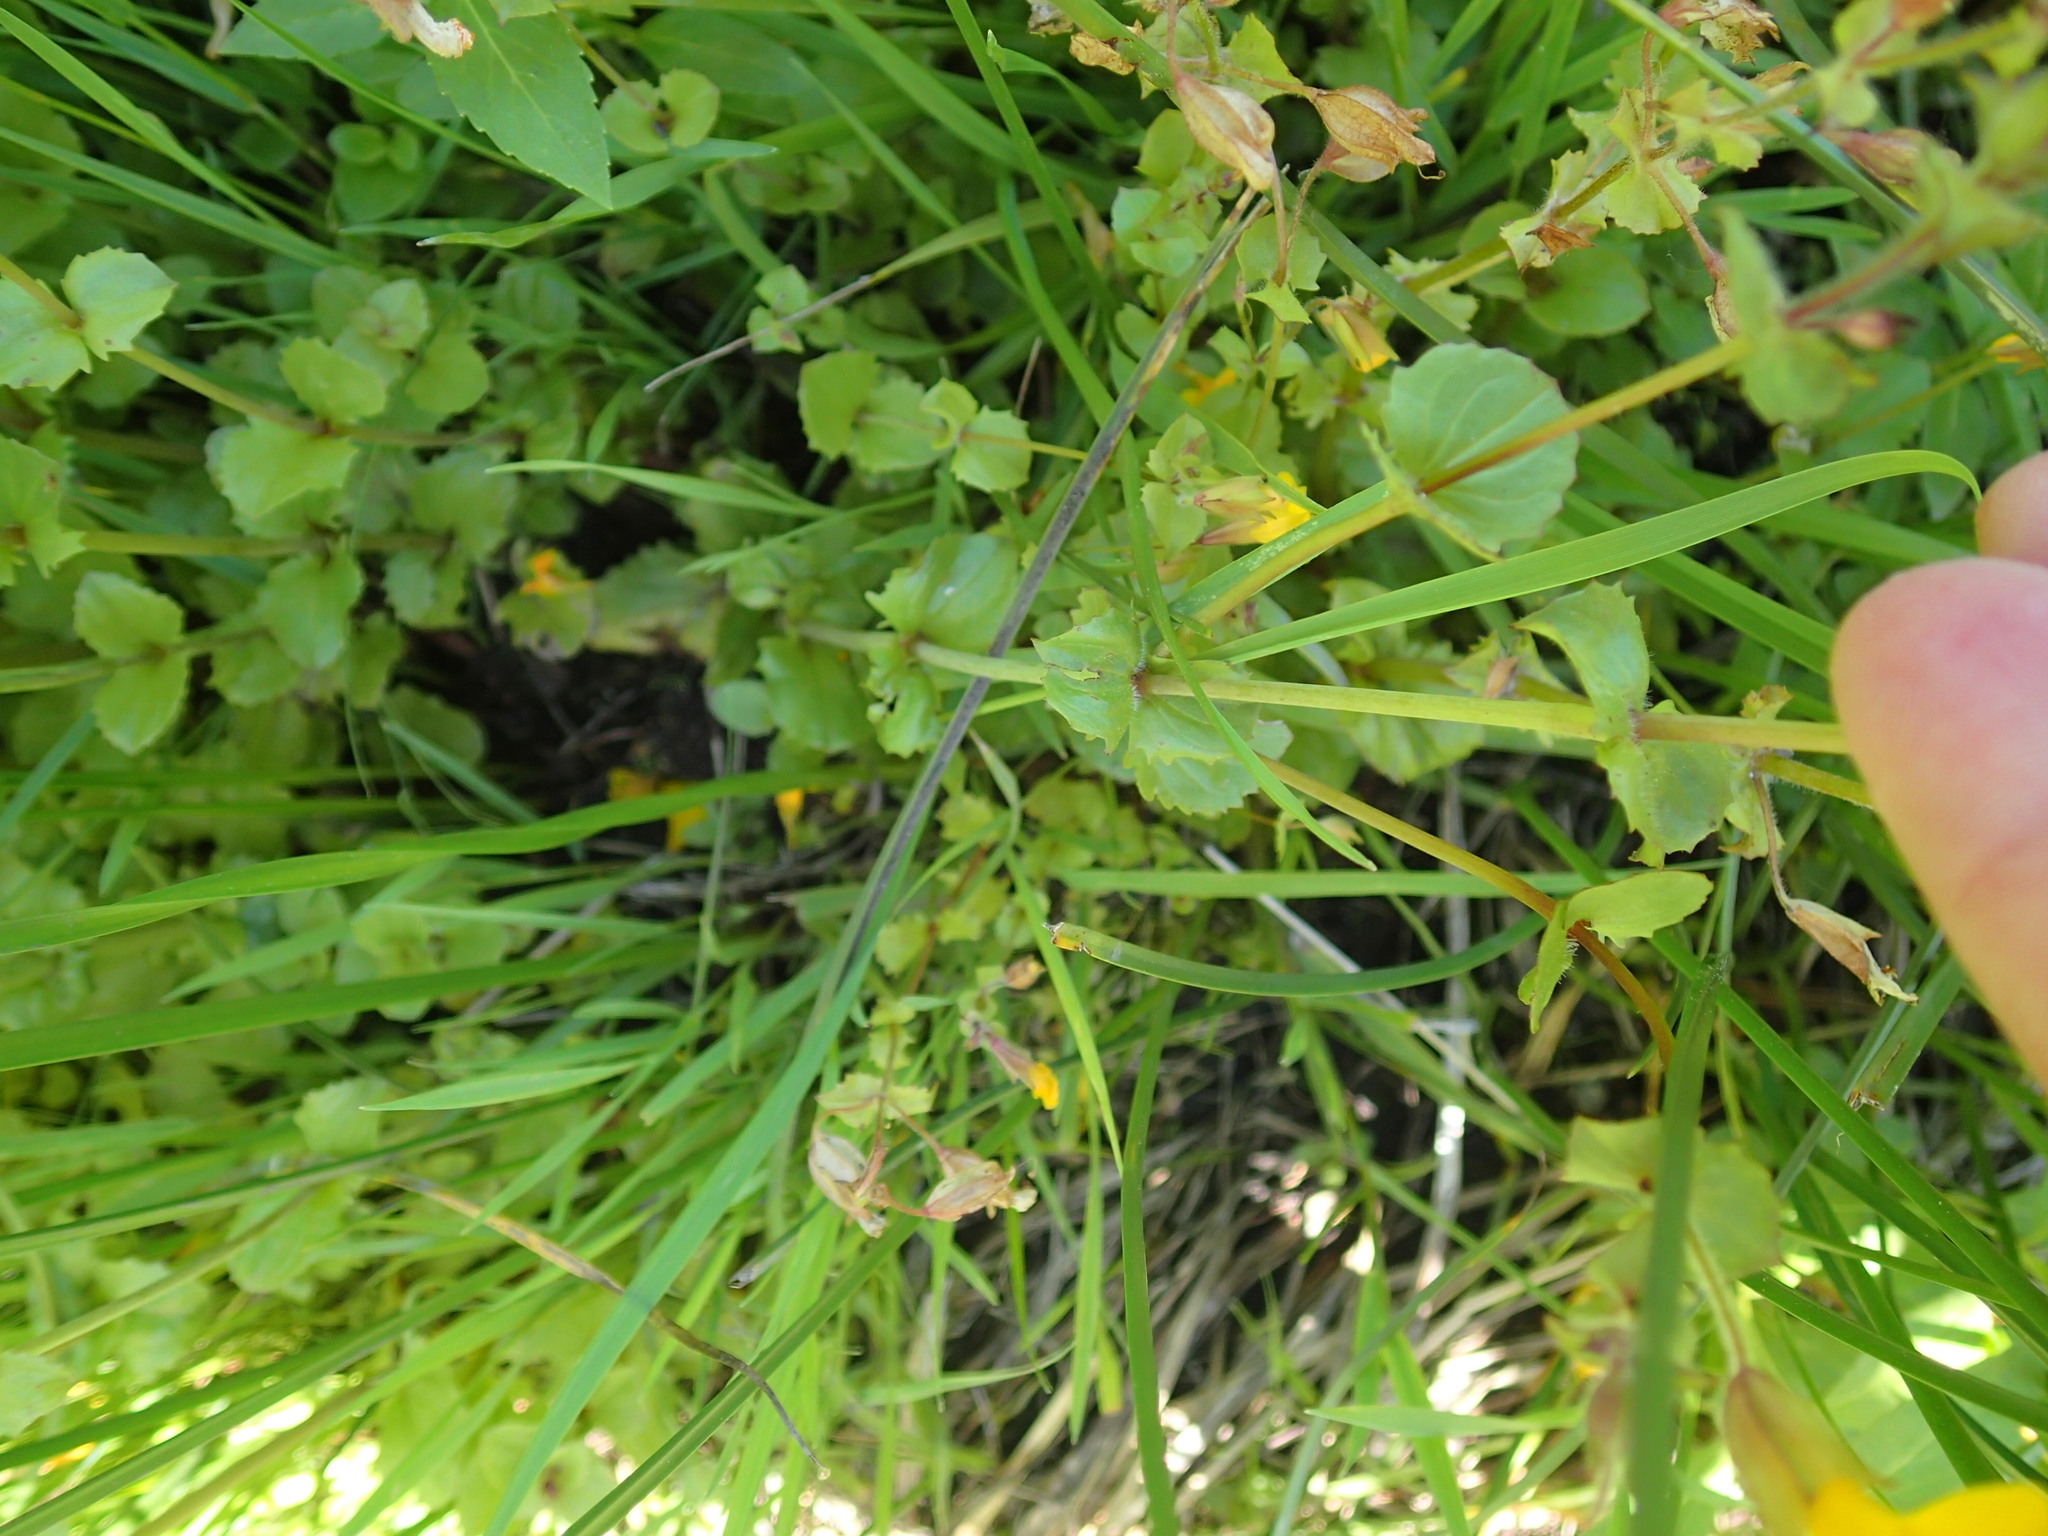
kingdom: Plantae
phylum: Tracheophyta
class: Magnoliopsida
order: Lamiales
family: Phrymaceae
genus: Erythranthe
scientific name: Erythranthe guttata
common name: Monkeyflower
